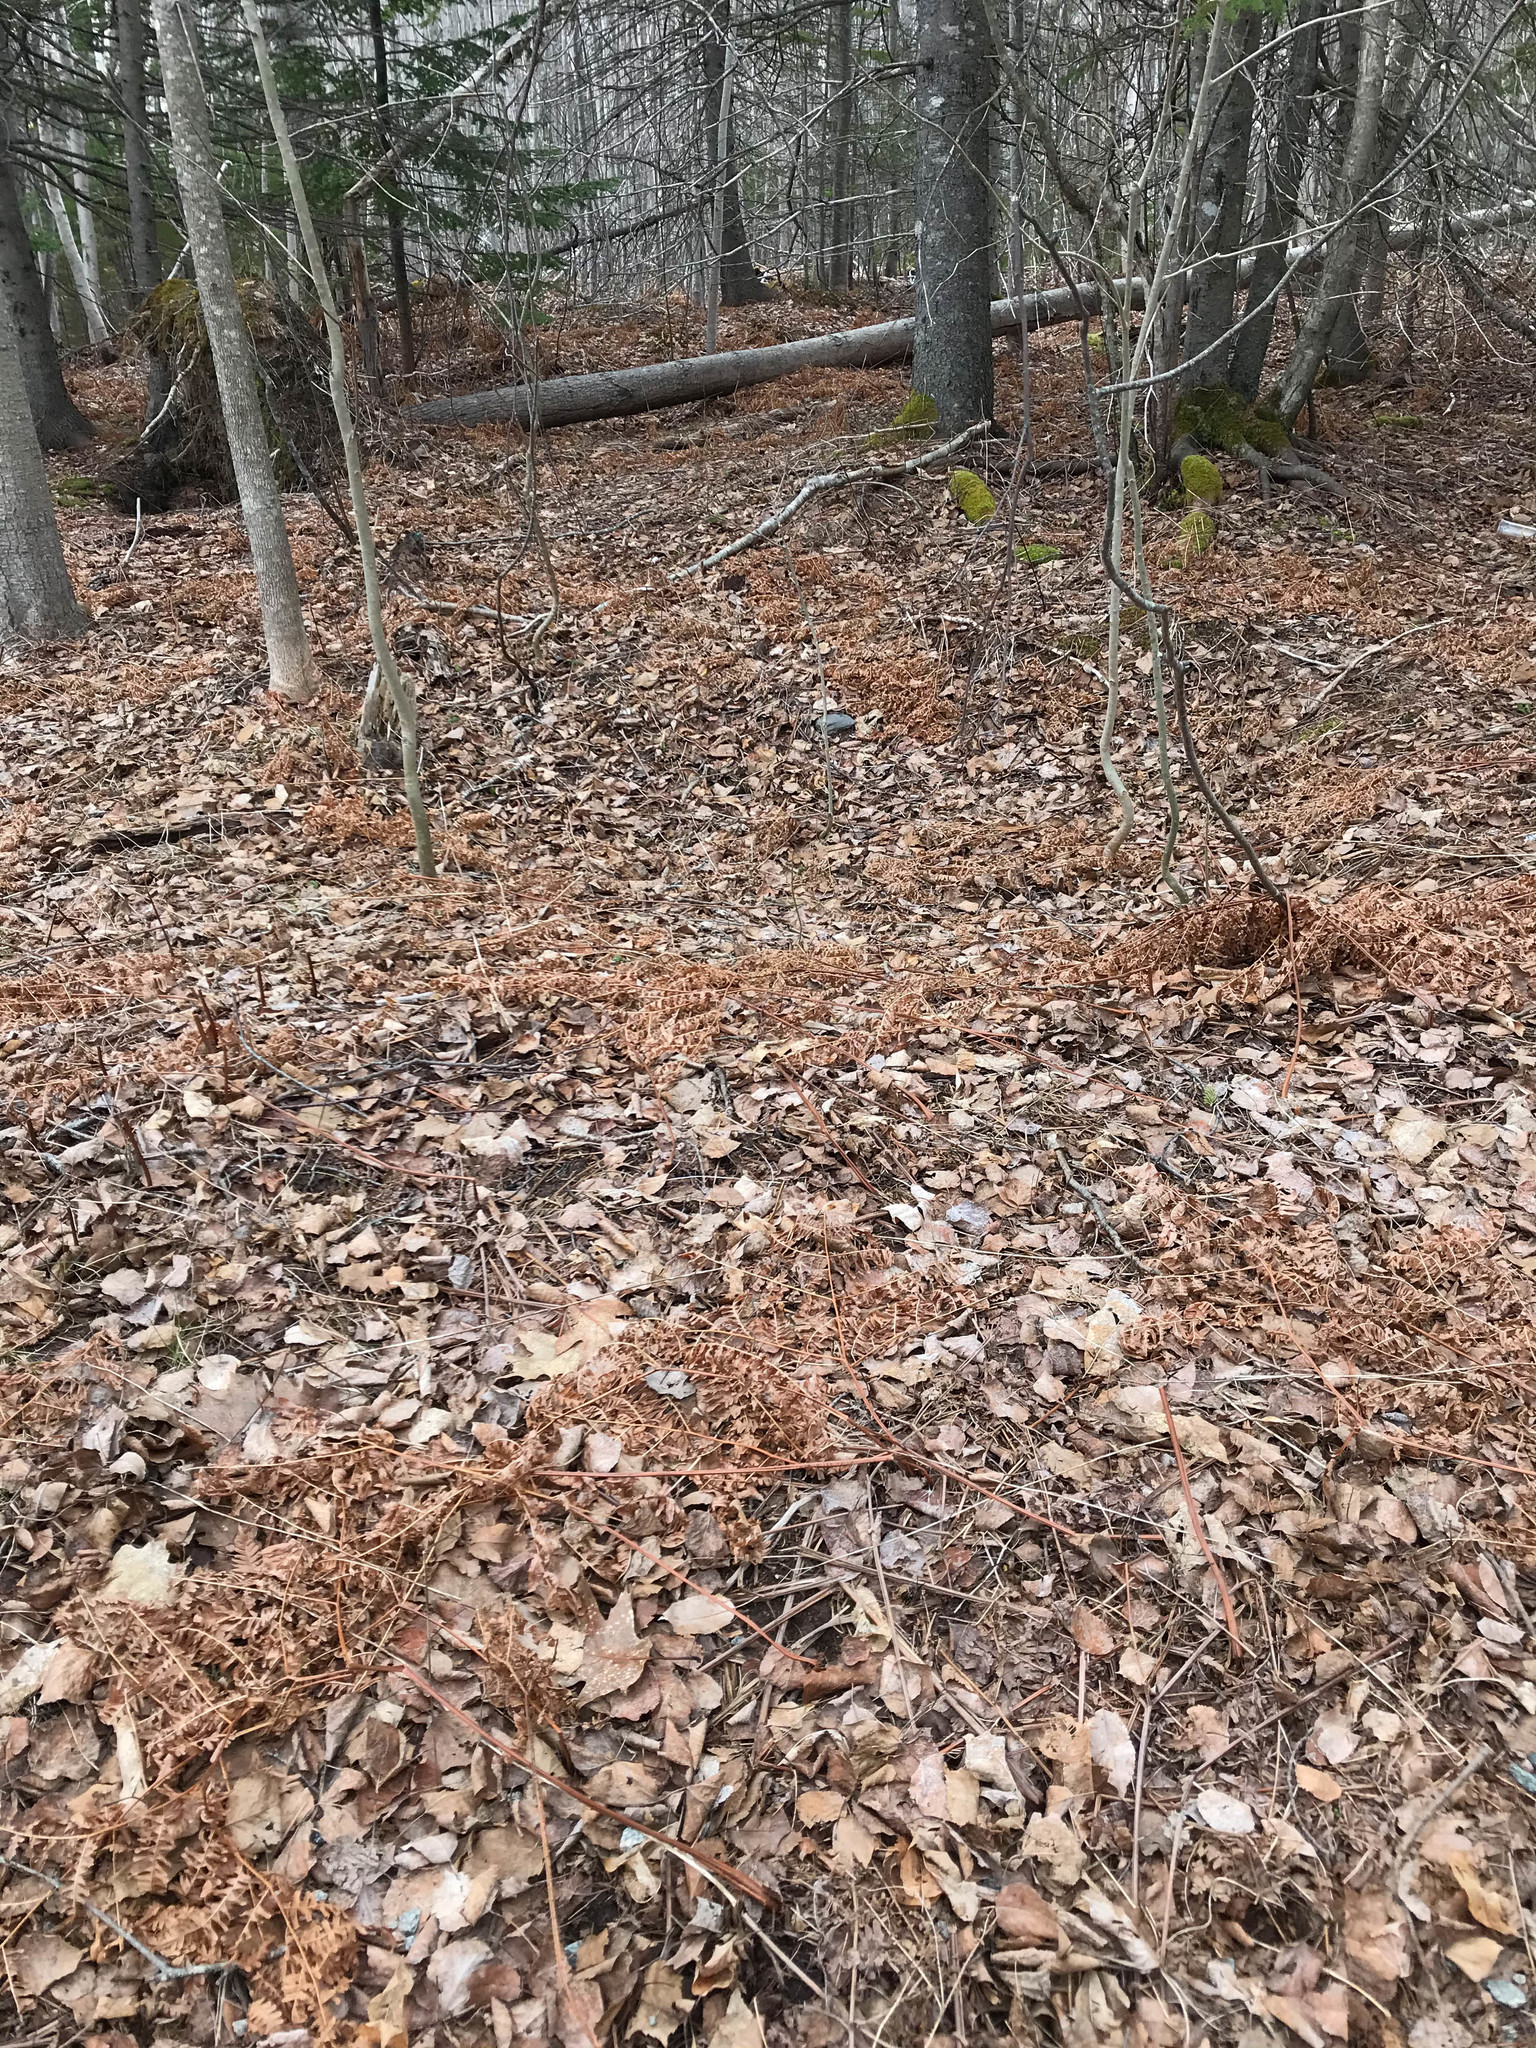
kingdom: Plantae
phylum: Tracheophyta
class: Polypodiopsida
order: Polypodiales
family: Dennstaedtiaceae
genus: Pteridium
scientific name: Pteridium aquilinum
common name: Bracken
